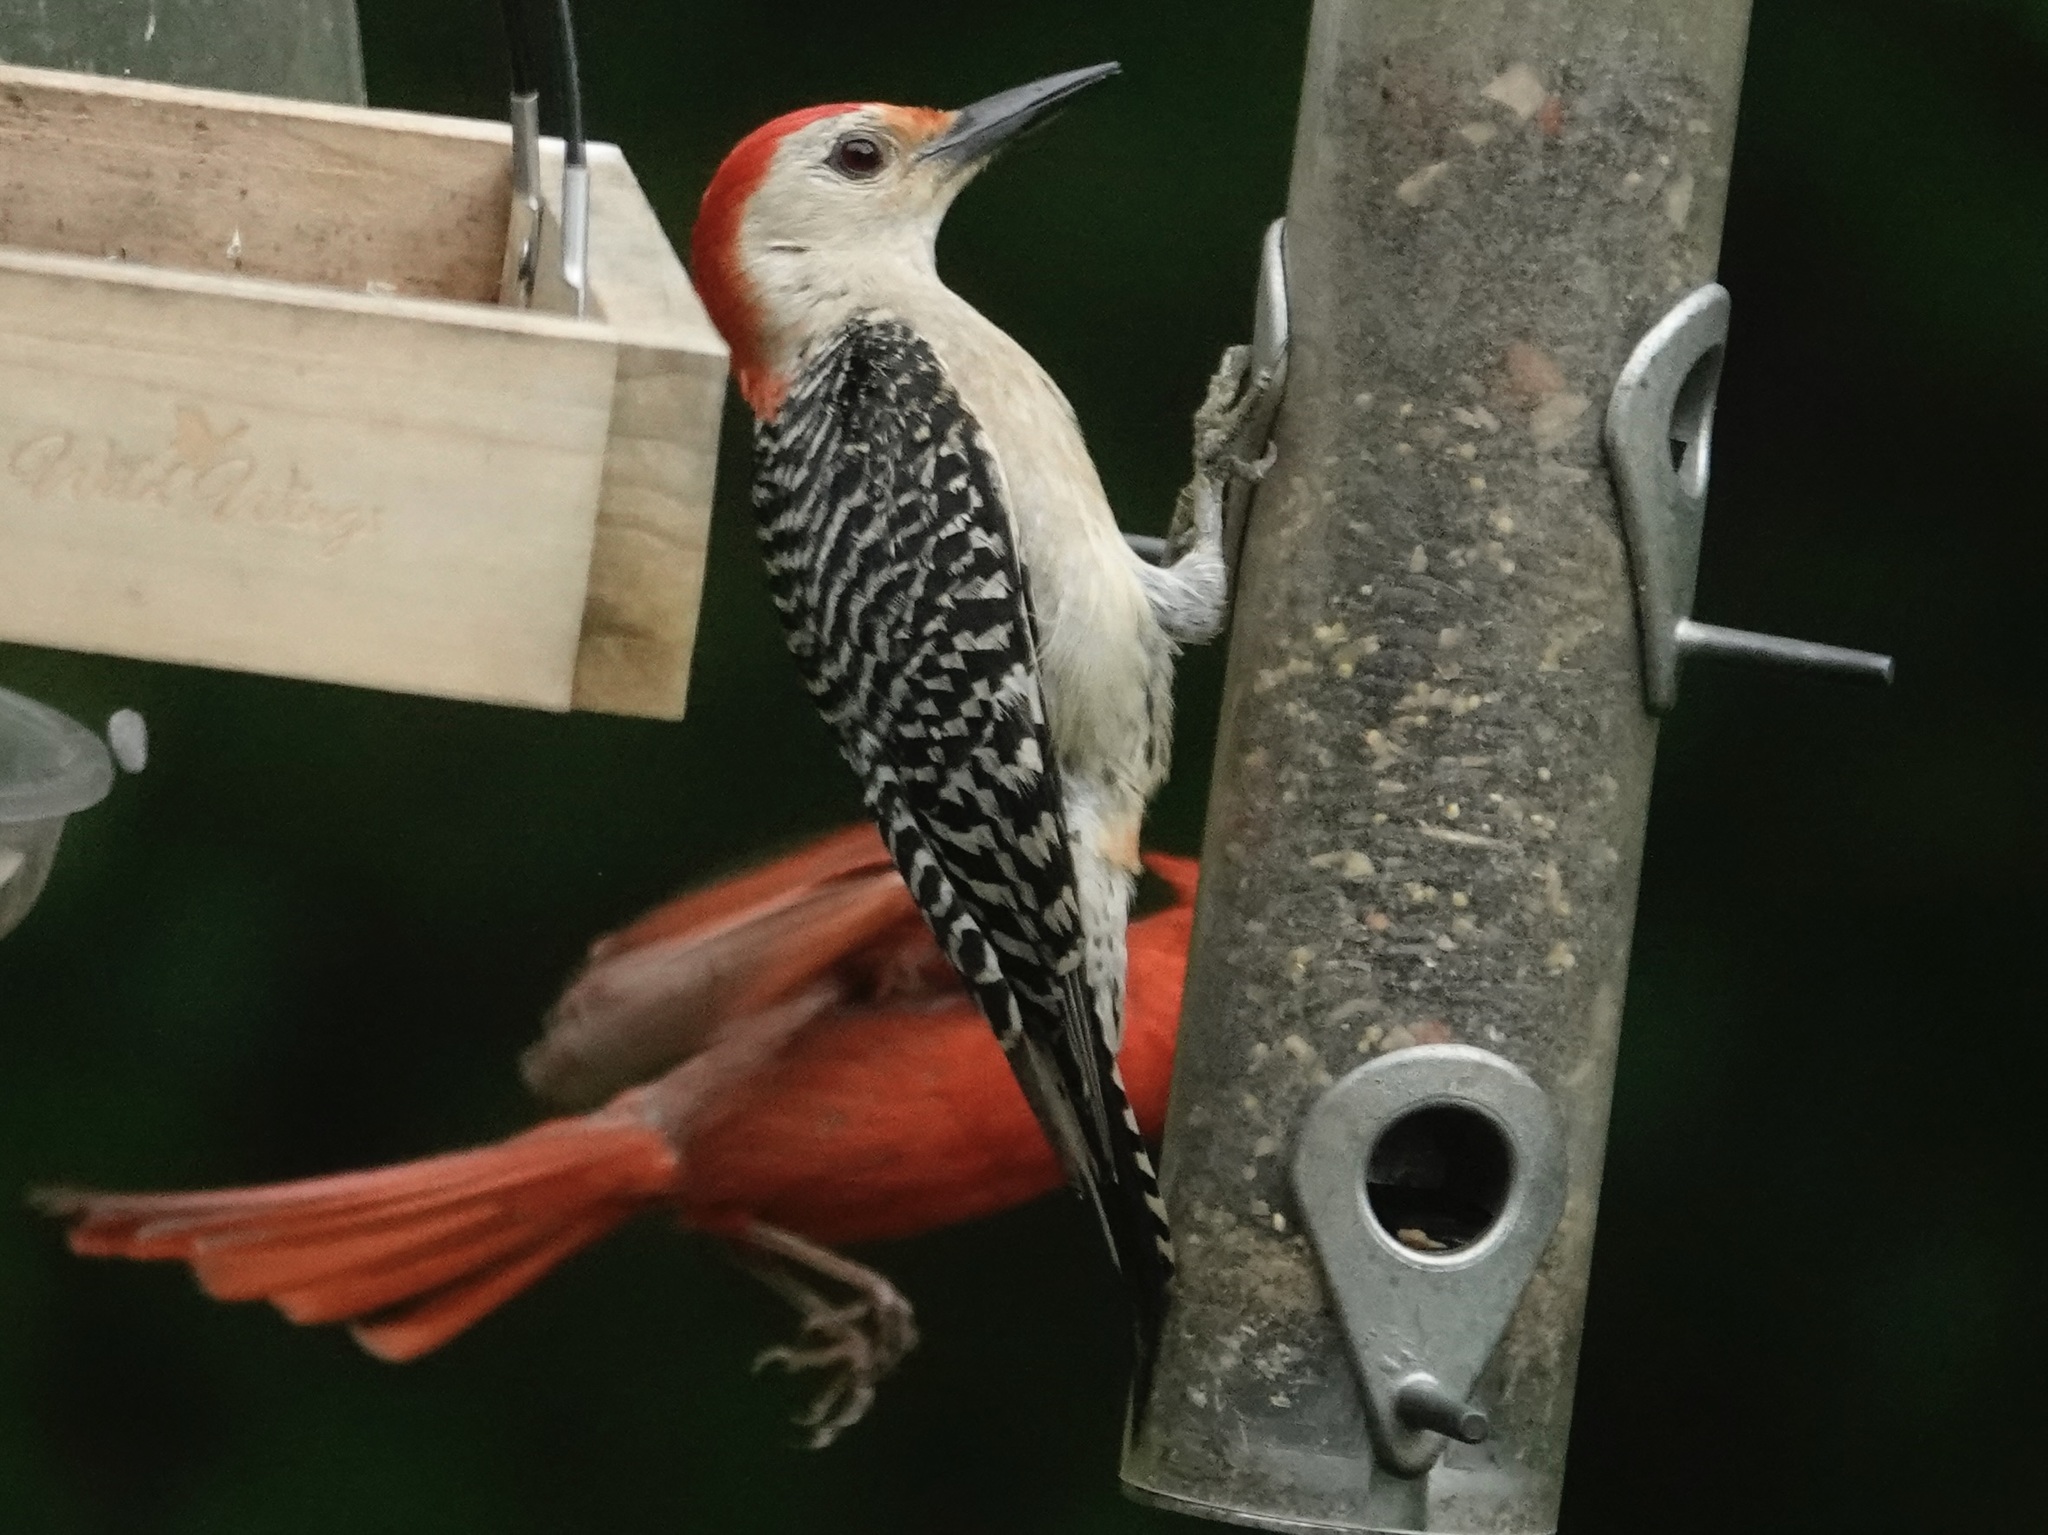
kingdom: Animalia
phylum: Chordata
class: Aves
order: Piciformes
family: Picidae
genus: Melanerpes
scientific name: Melanerpes carolinus
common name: Red-bellied woodpecker
